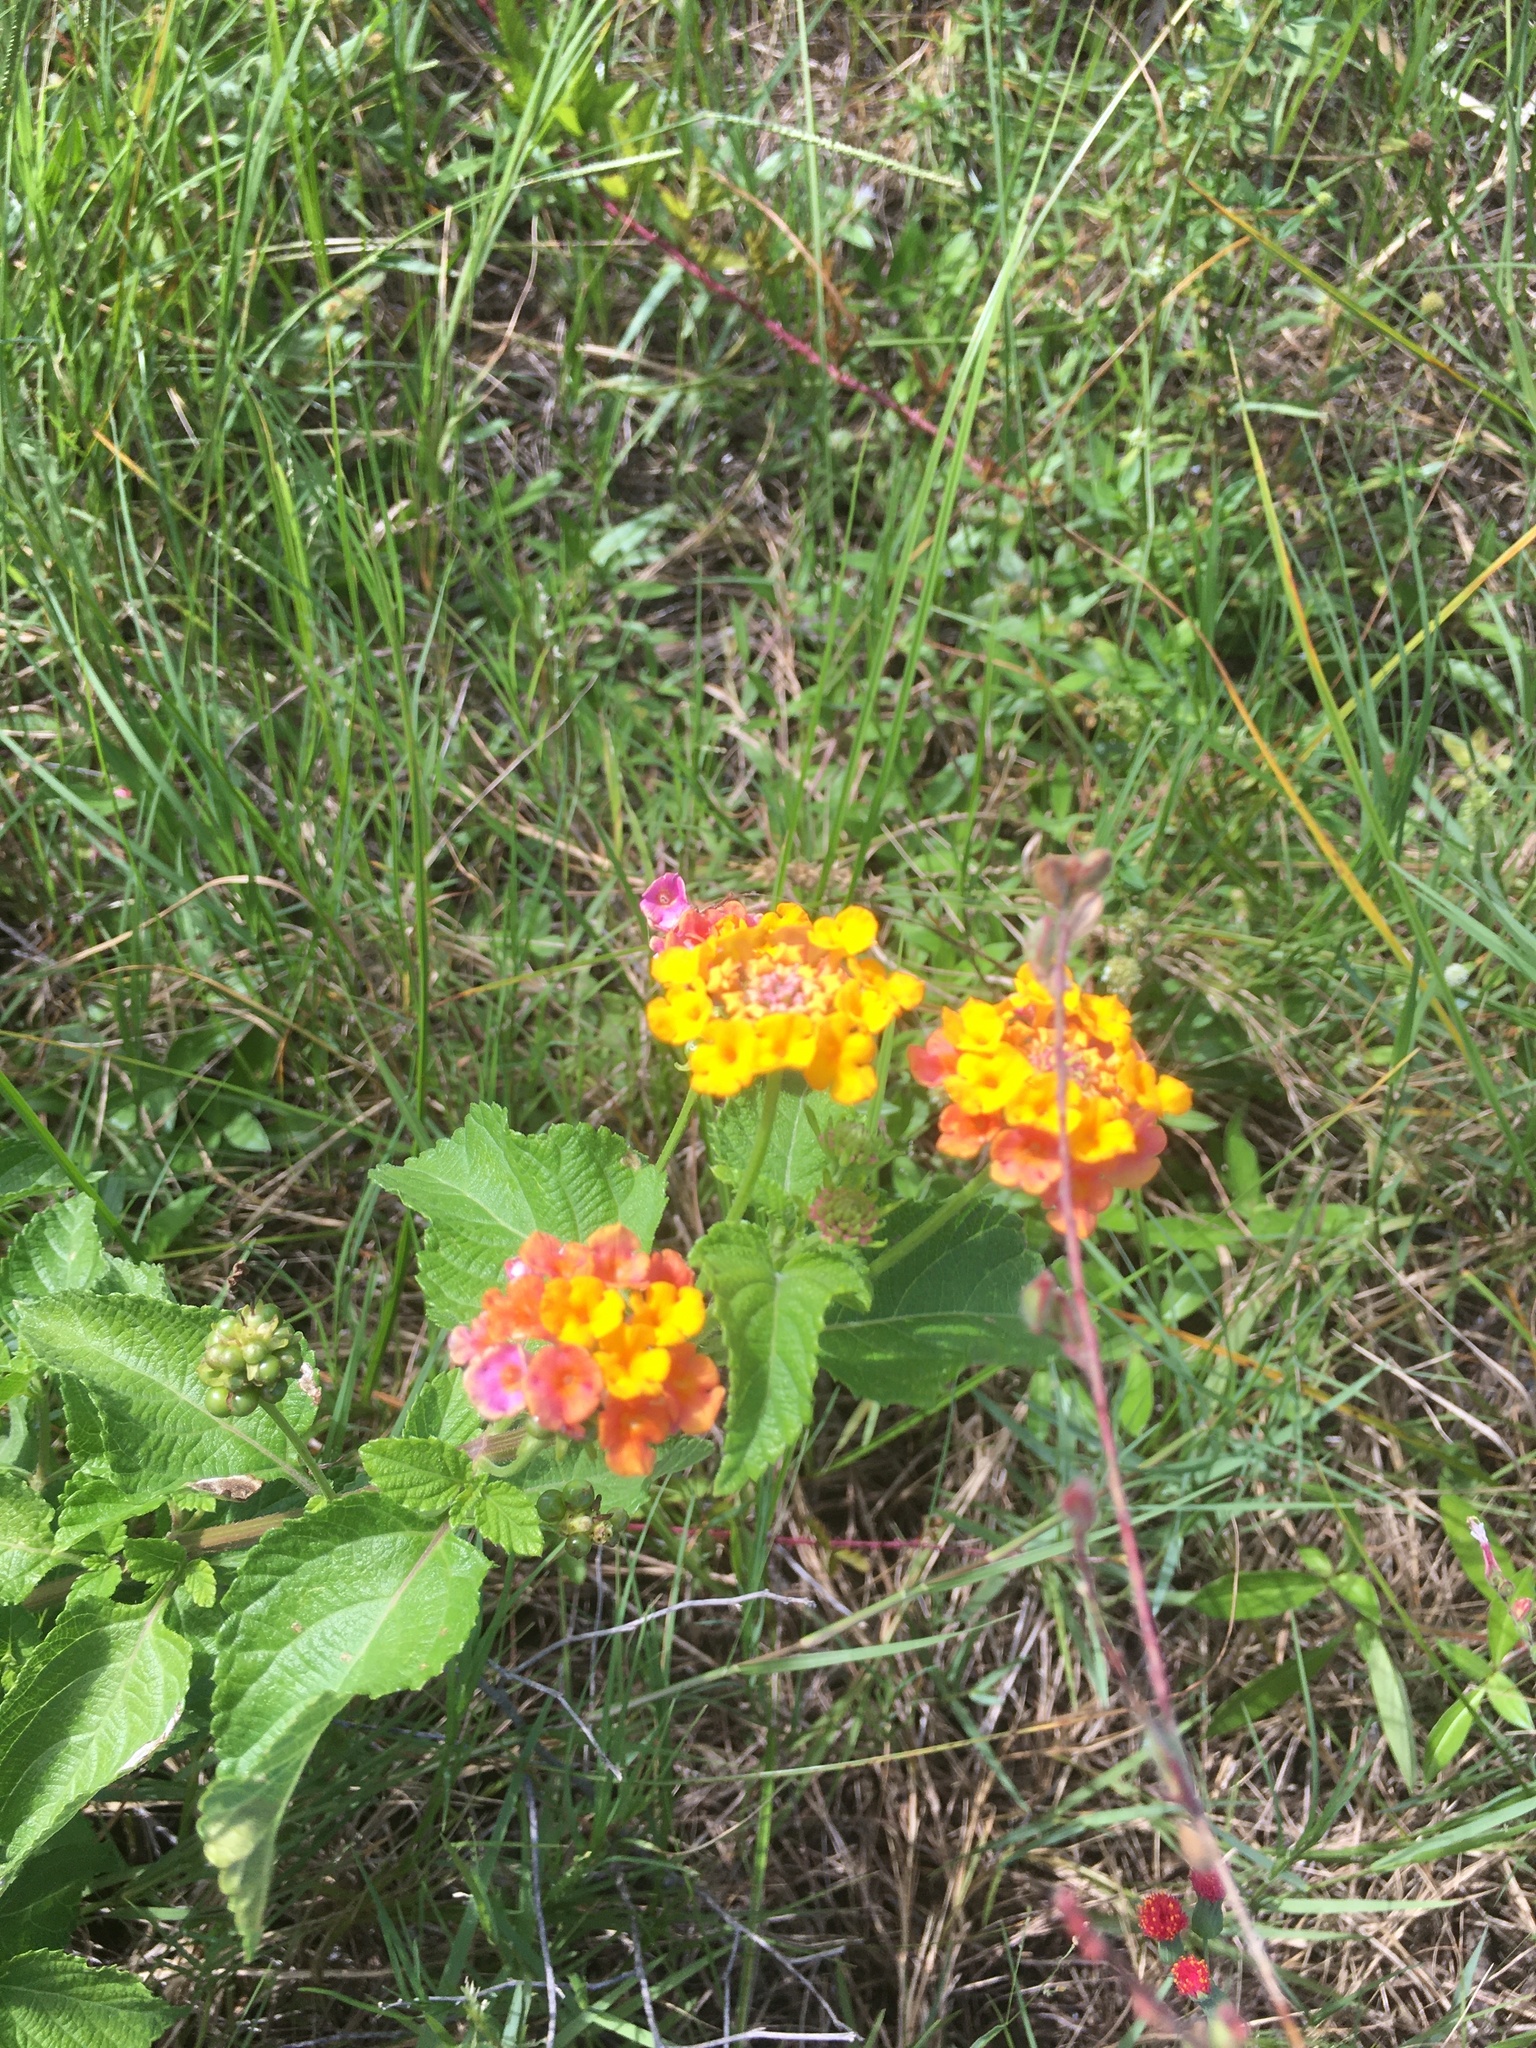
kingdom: Plantae
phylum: Tracheophyta
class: Magnoliopsida
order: Lamiales
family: Verbenaceae
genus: Lantana
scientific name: Lantana strigocamara
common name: Lantana
